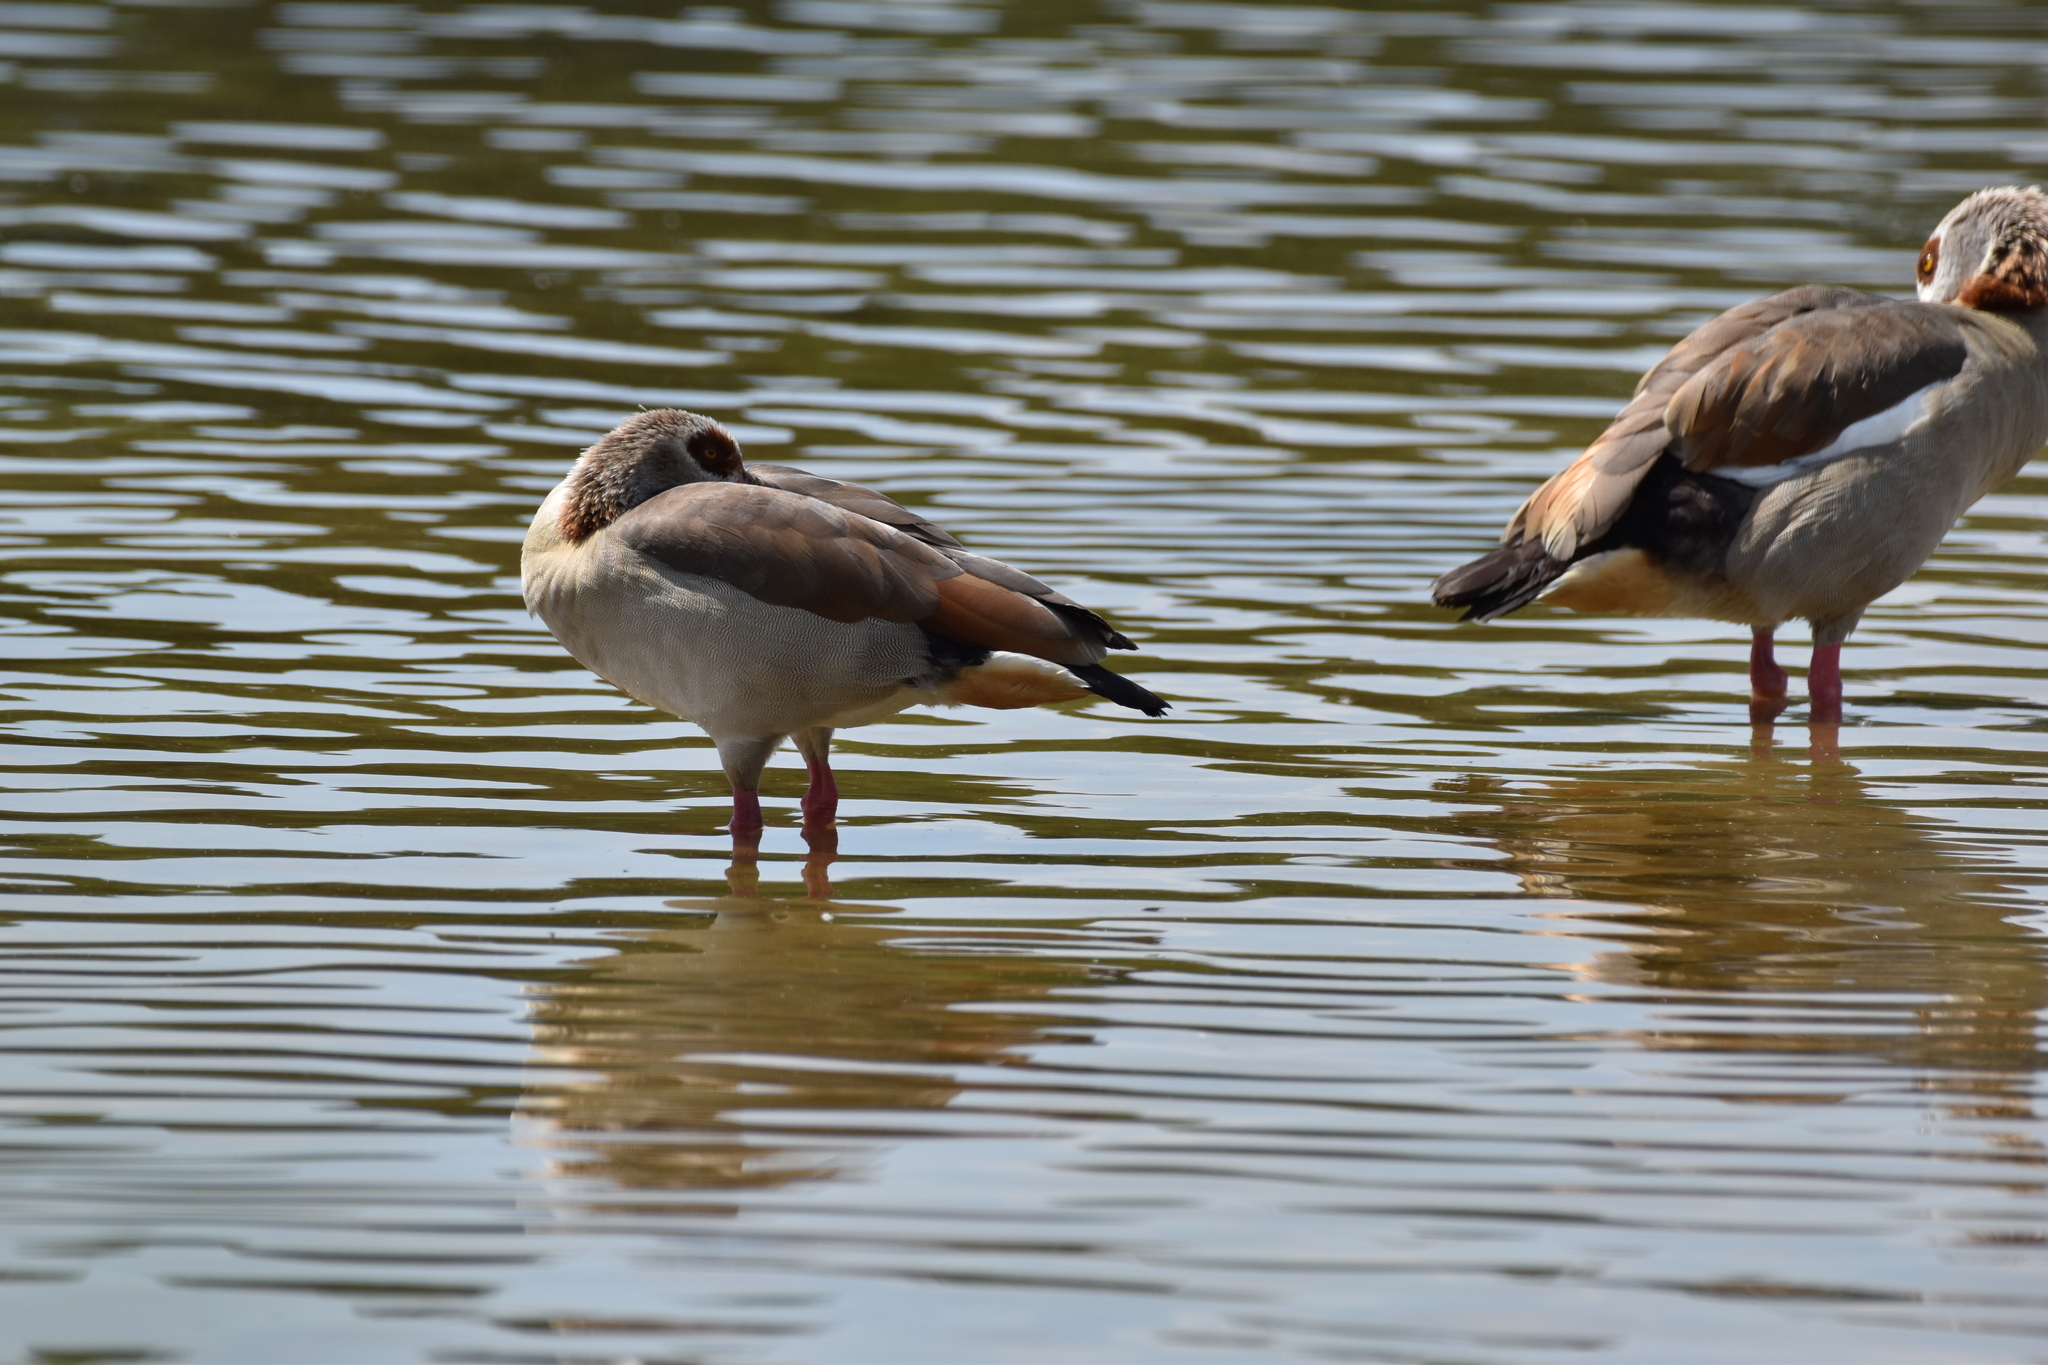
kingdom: Animalia
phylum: Chordata
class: Aves
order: Anseriformes
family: Anatidae
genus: Alopochen
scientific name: Alopochen aegyptiaca
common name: Egyptian goose
